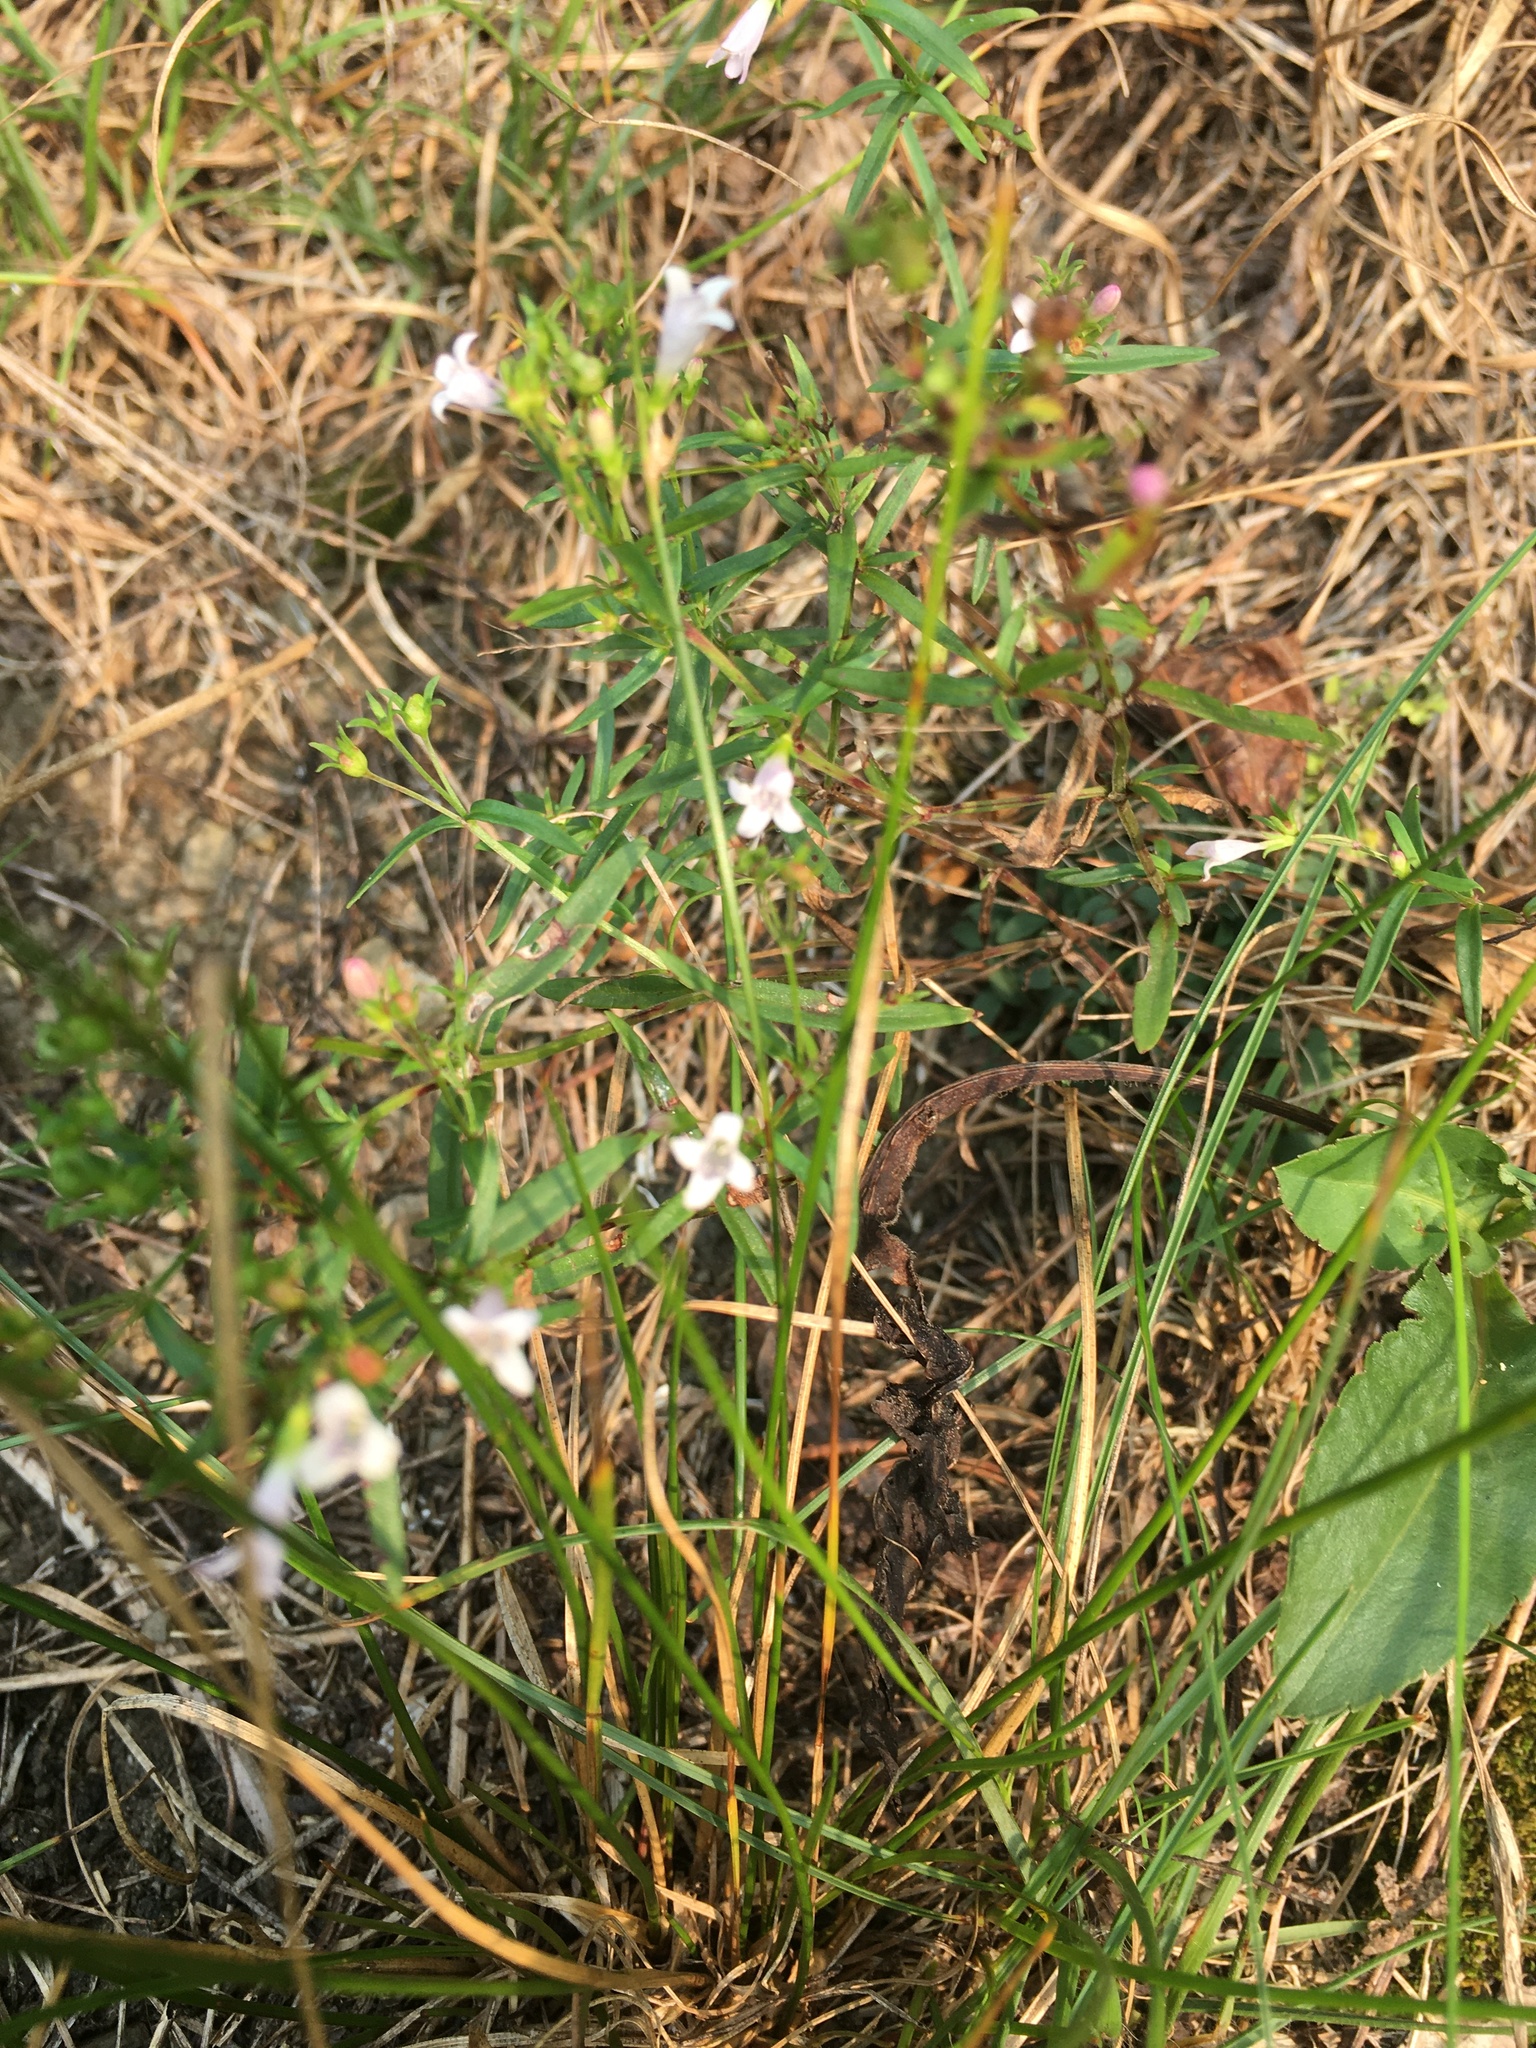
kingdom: Plantae
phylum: Tracheophyta
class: Magnoliopsida
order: Gentianales
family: Rubiaceae
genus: Houstonia
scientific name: Houstonia longifolia
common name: Long-leaved bluets
